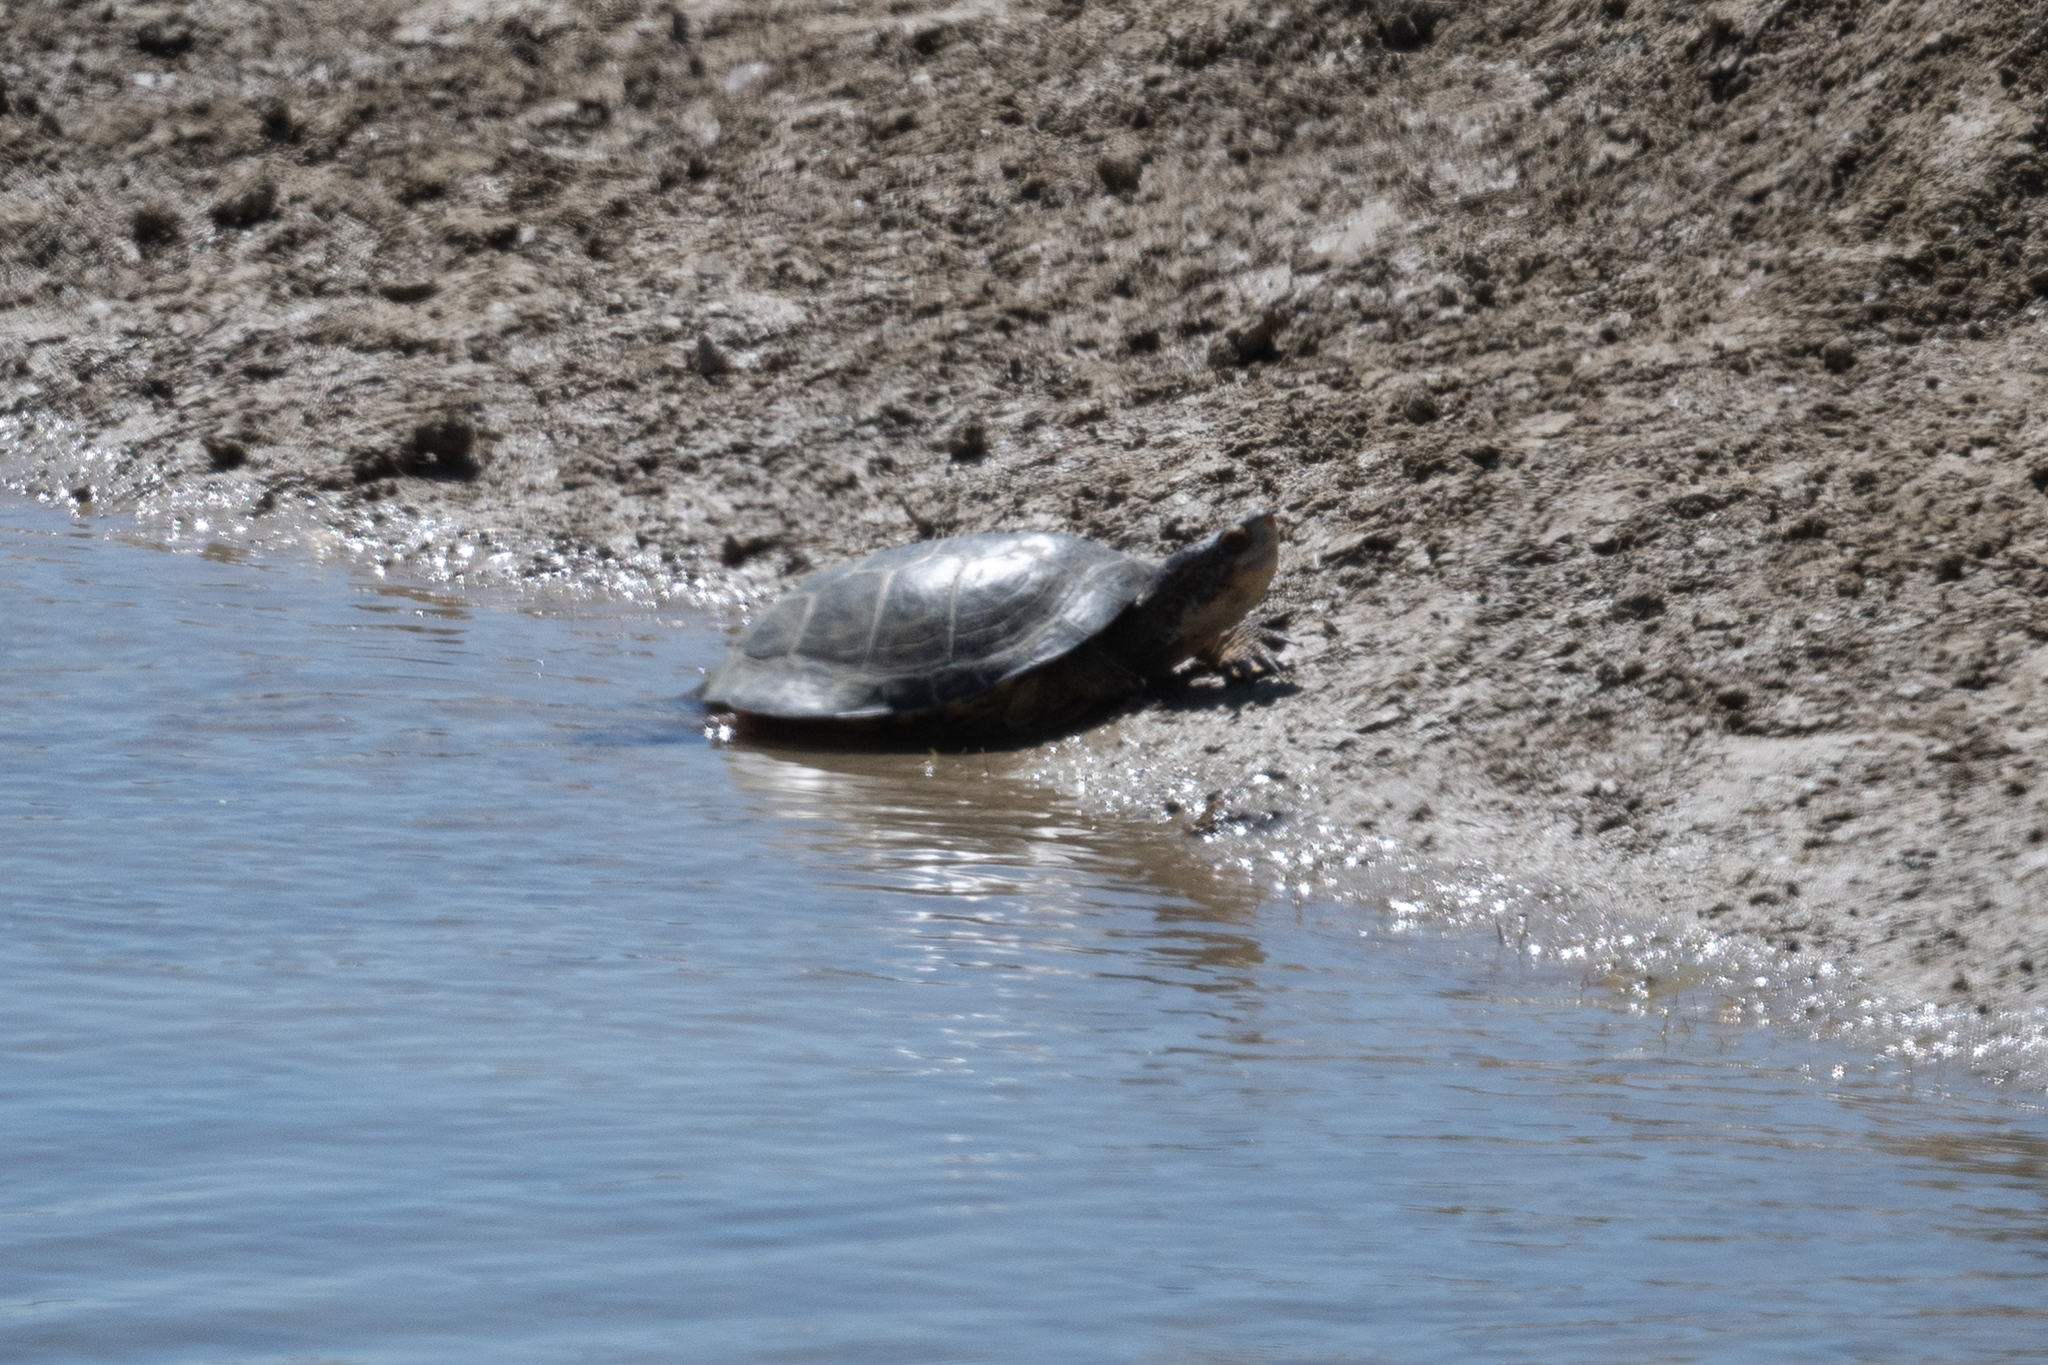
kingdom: Animalia
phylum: Chordata
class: Testudines
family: Emydidae
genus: Actinemys
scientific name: Actinemys marmorata
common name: Western pond turtle
